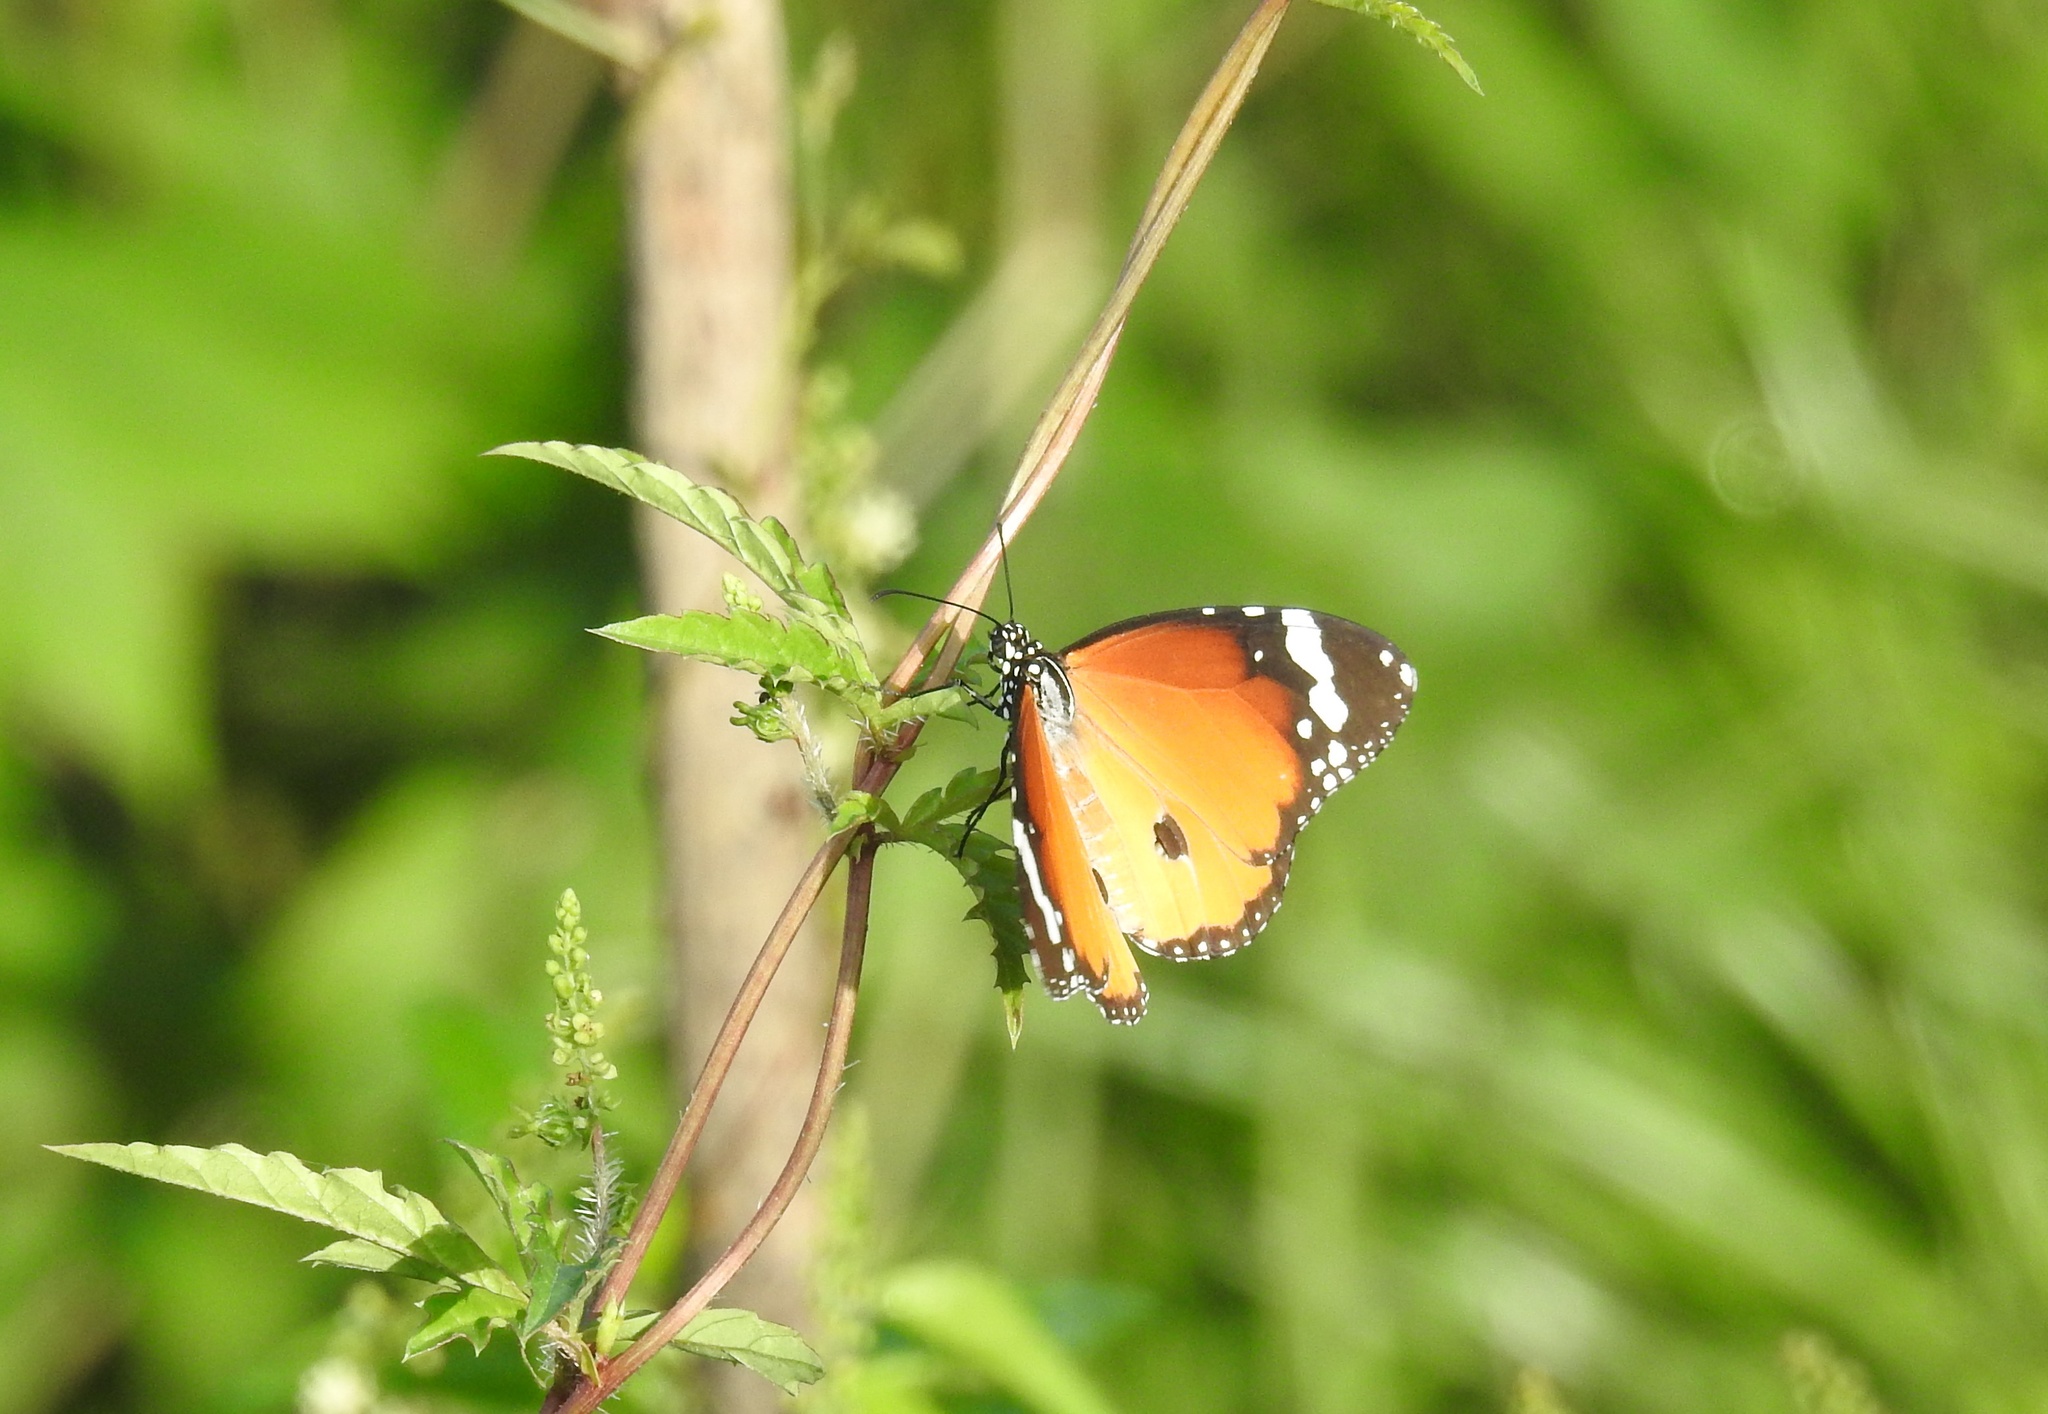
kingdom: Animalia
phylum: Arthropoda
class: Insecta
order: Lepidoptera
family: Nymphalidae
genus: Danaus
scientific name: Danaus chrysippus
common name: Plain tiger
